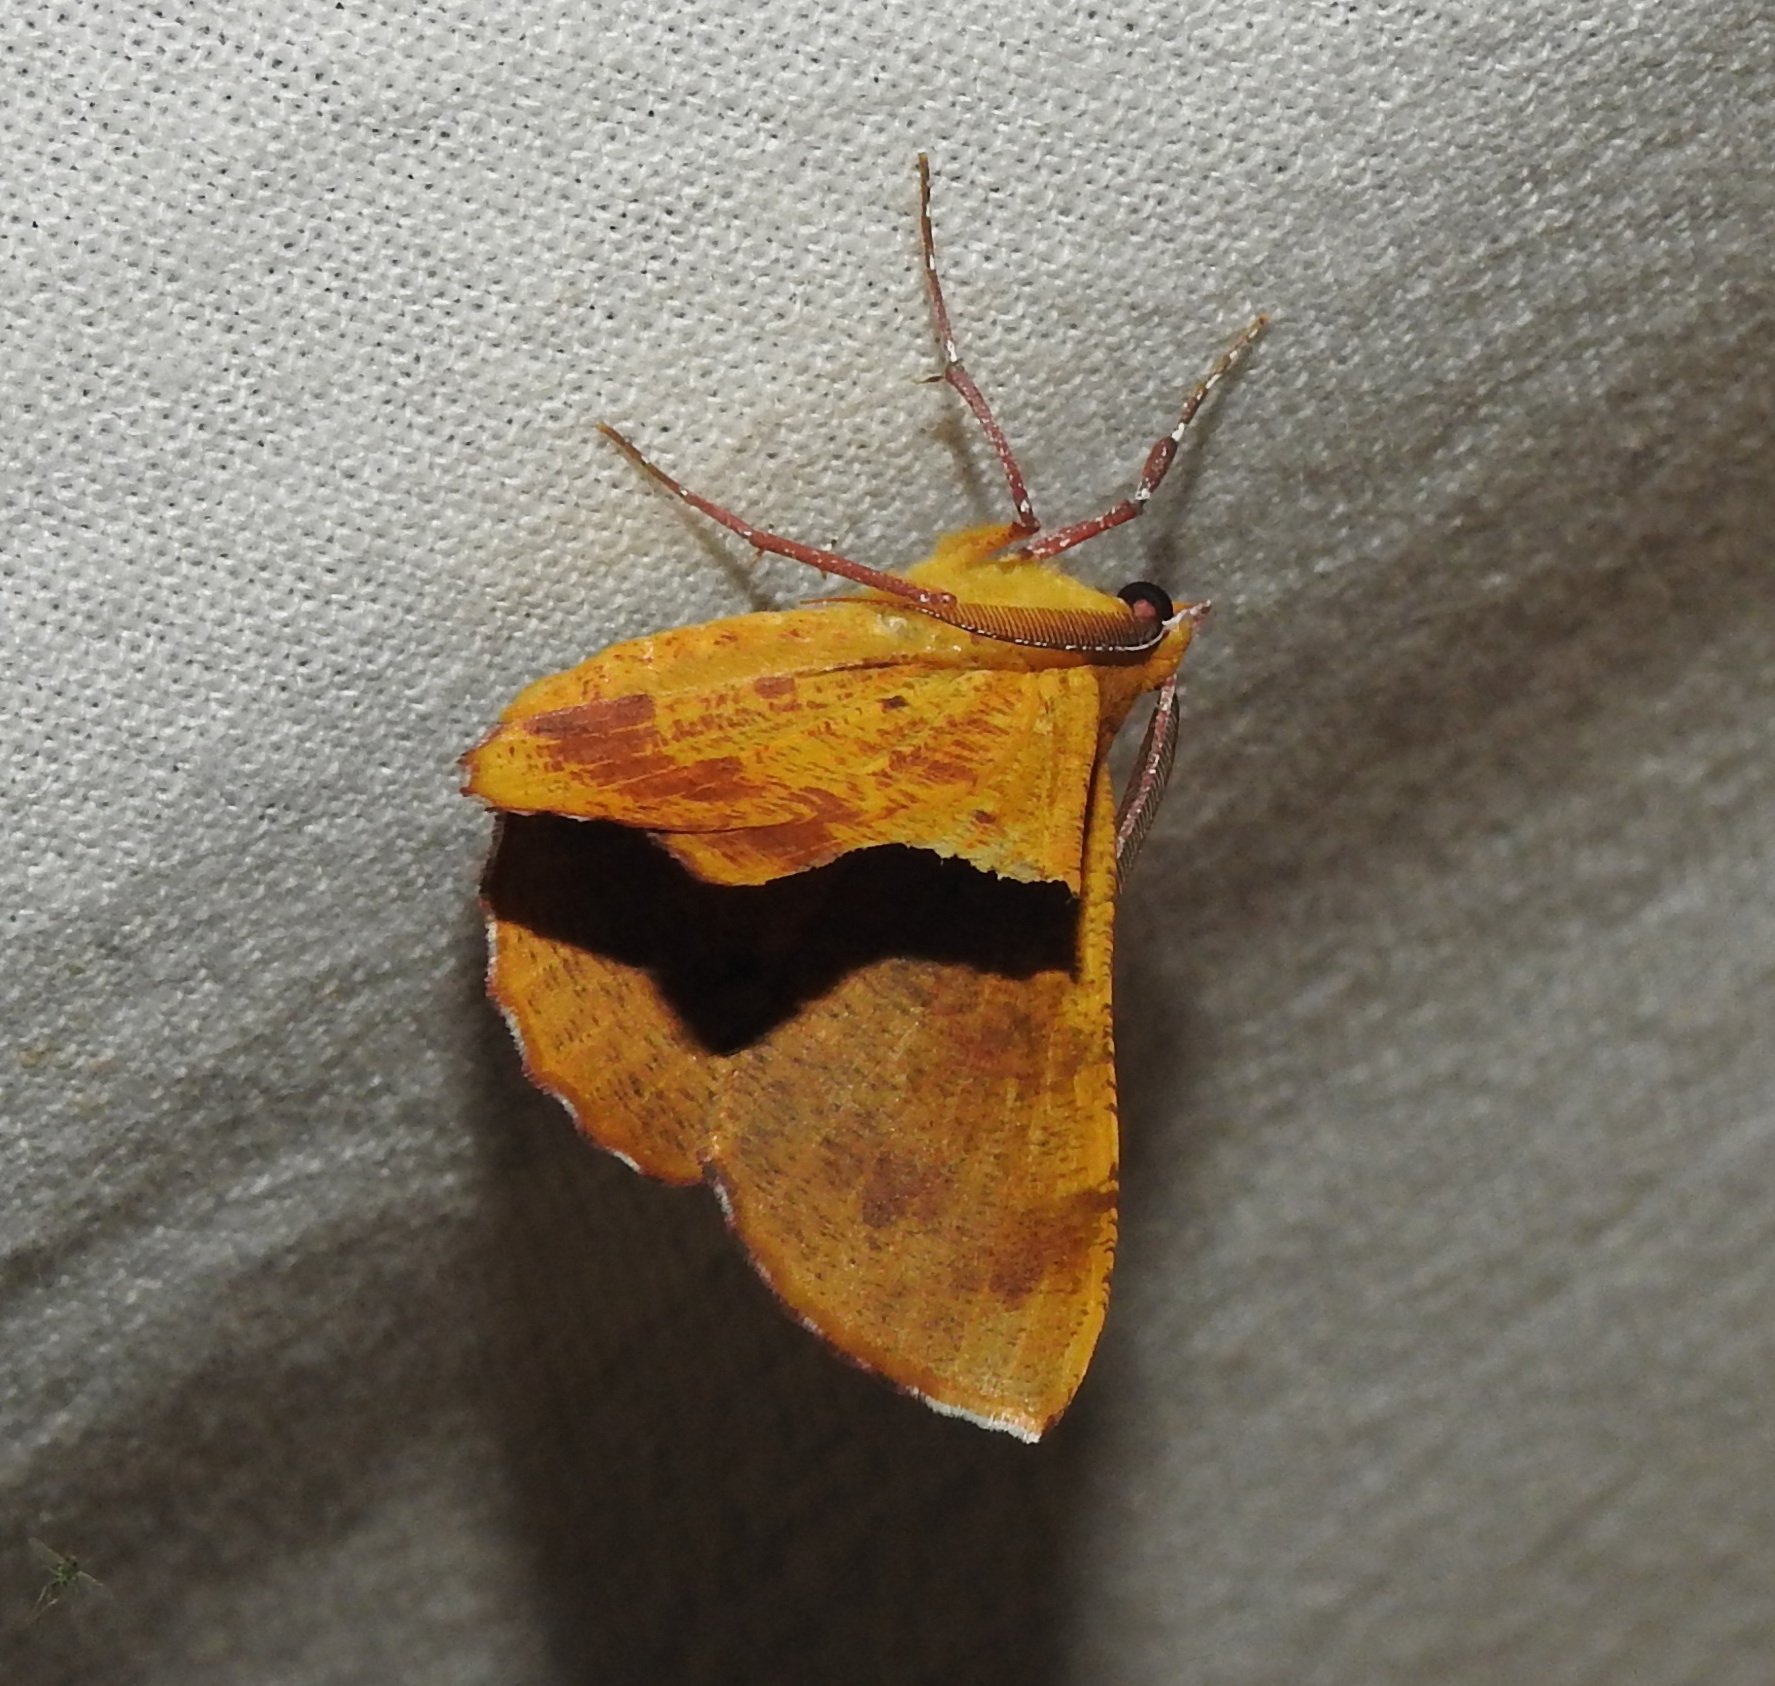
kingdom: Animalia
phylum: Arthropoda
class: Insecta
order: Lepidoptera
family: Geometridae
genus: Hyperythra
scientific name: Hyperythra lutea
